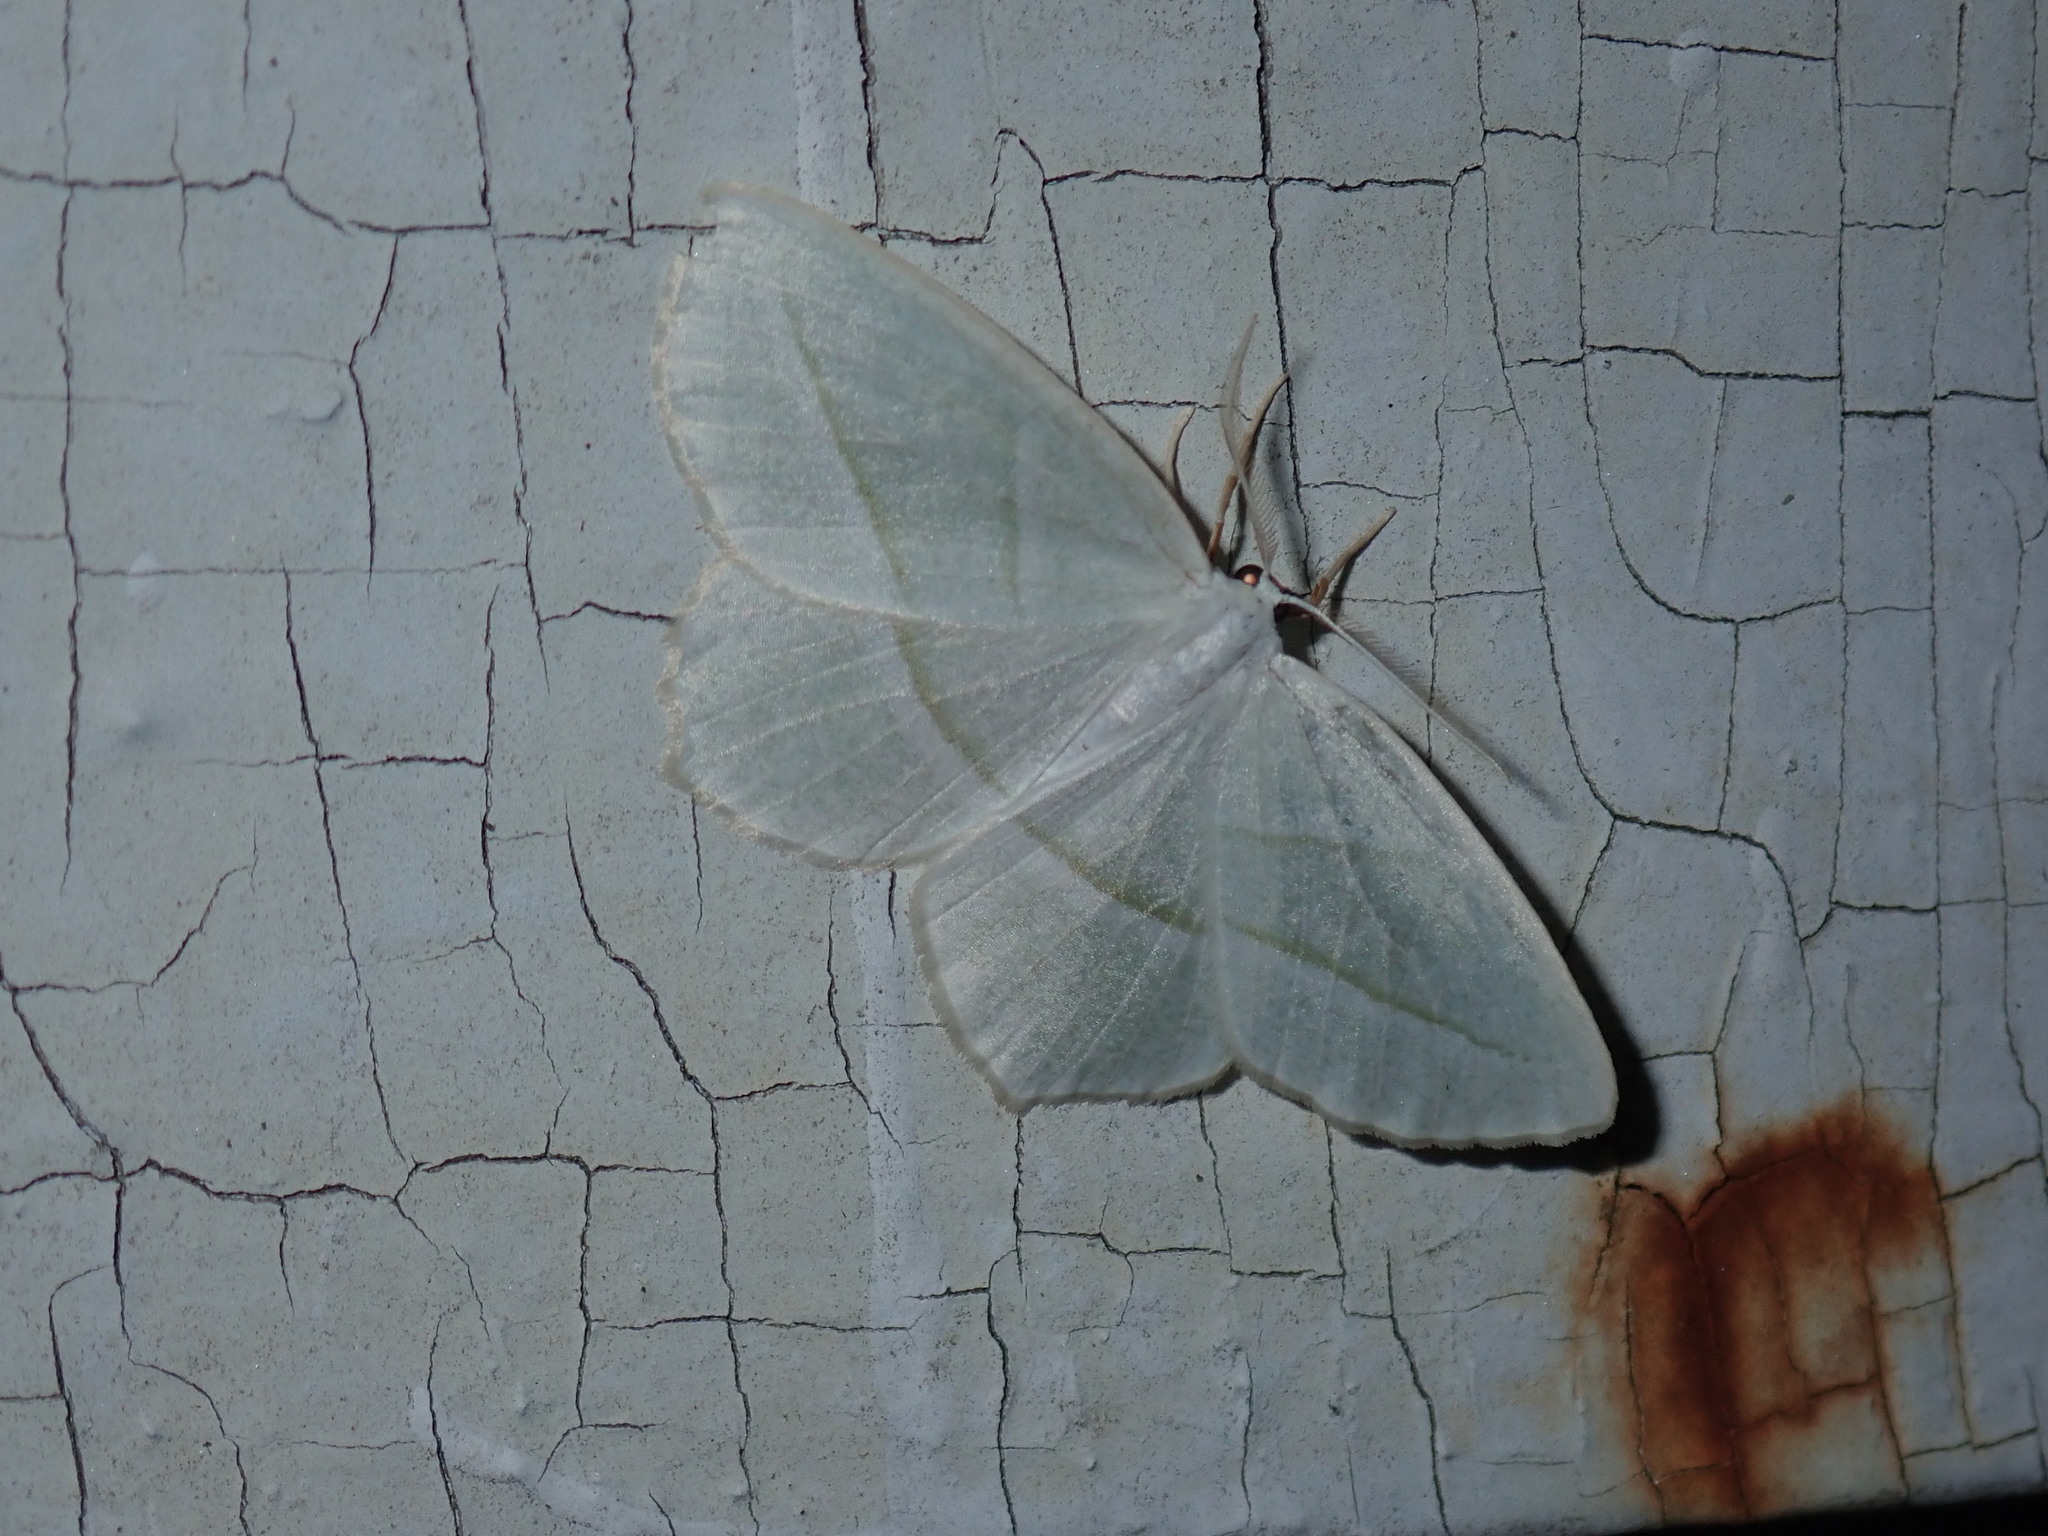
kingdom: Animalia
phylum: Arthropoda
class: Insecta
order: Lepidoptera
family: Geometridae
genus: Campaea
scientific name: Campaea perlata
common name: Fringed looper
